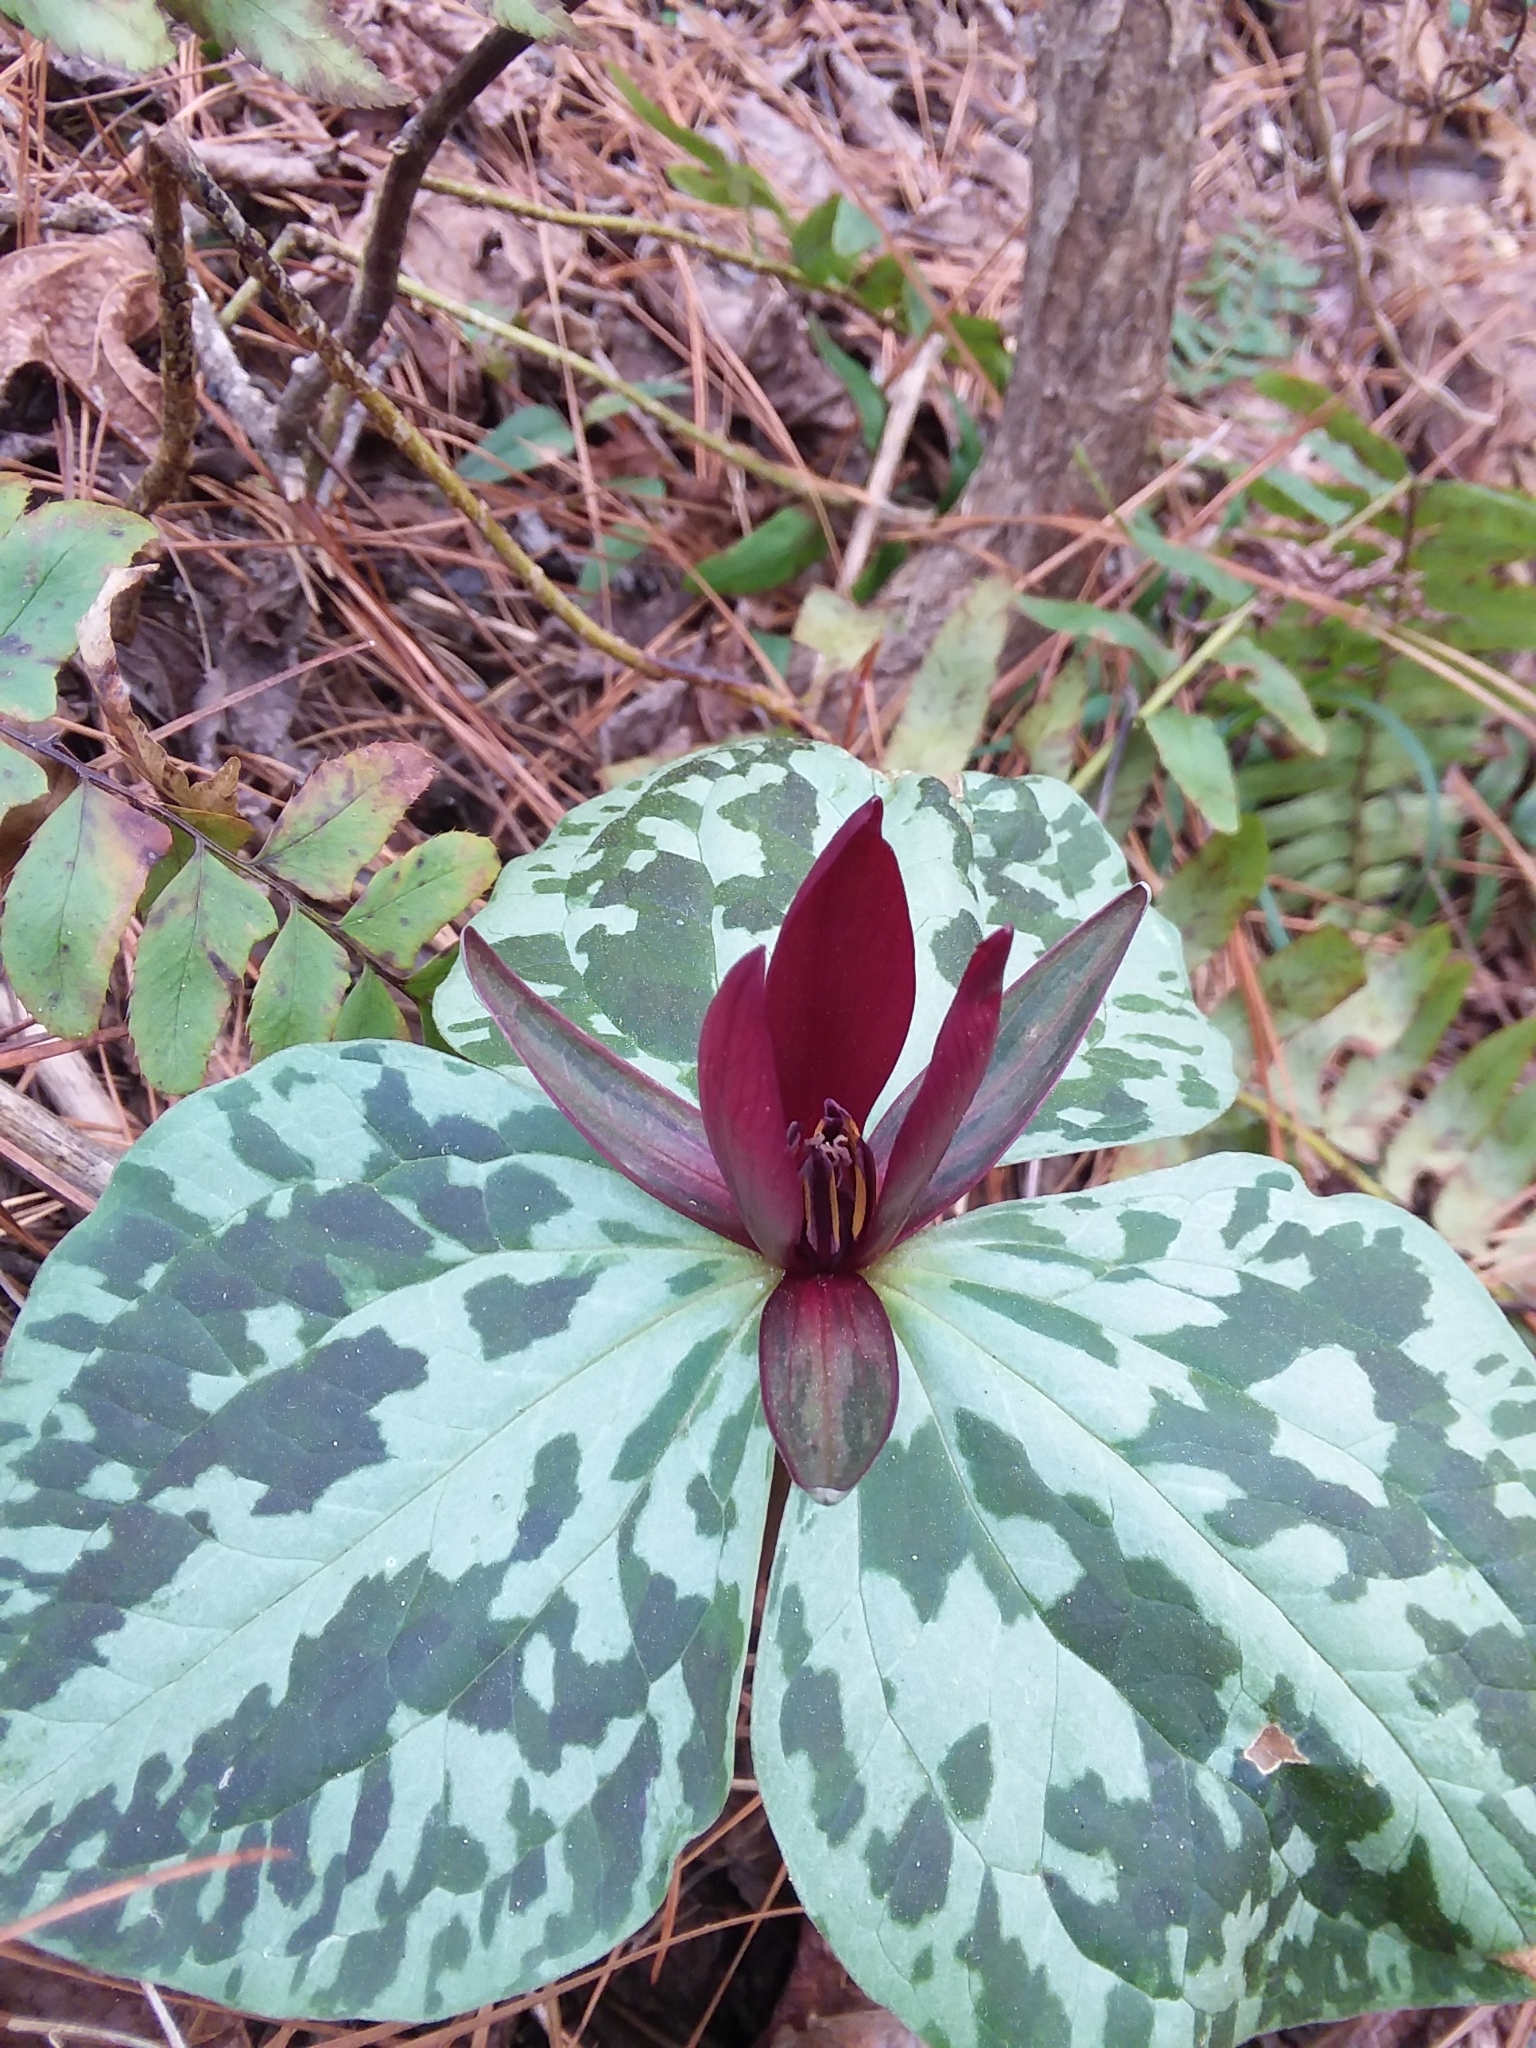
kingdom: Plantae
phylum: Tracheophyta
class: Liliopsida
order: Liliales
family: Melanthiaceae
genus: Trillium
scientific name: Trillium cuneatum
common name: Cuneate trillium
